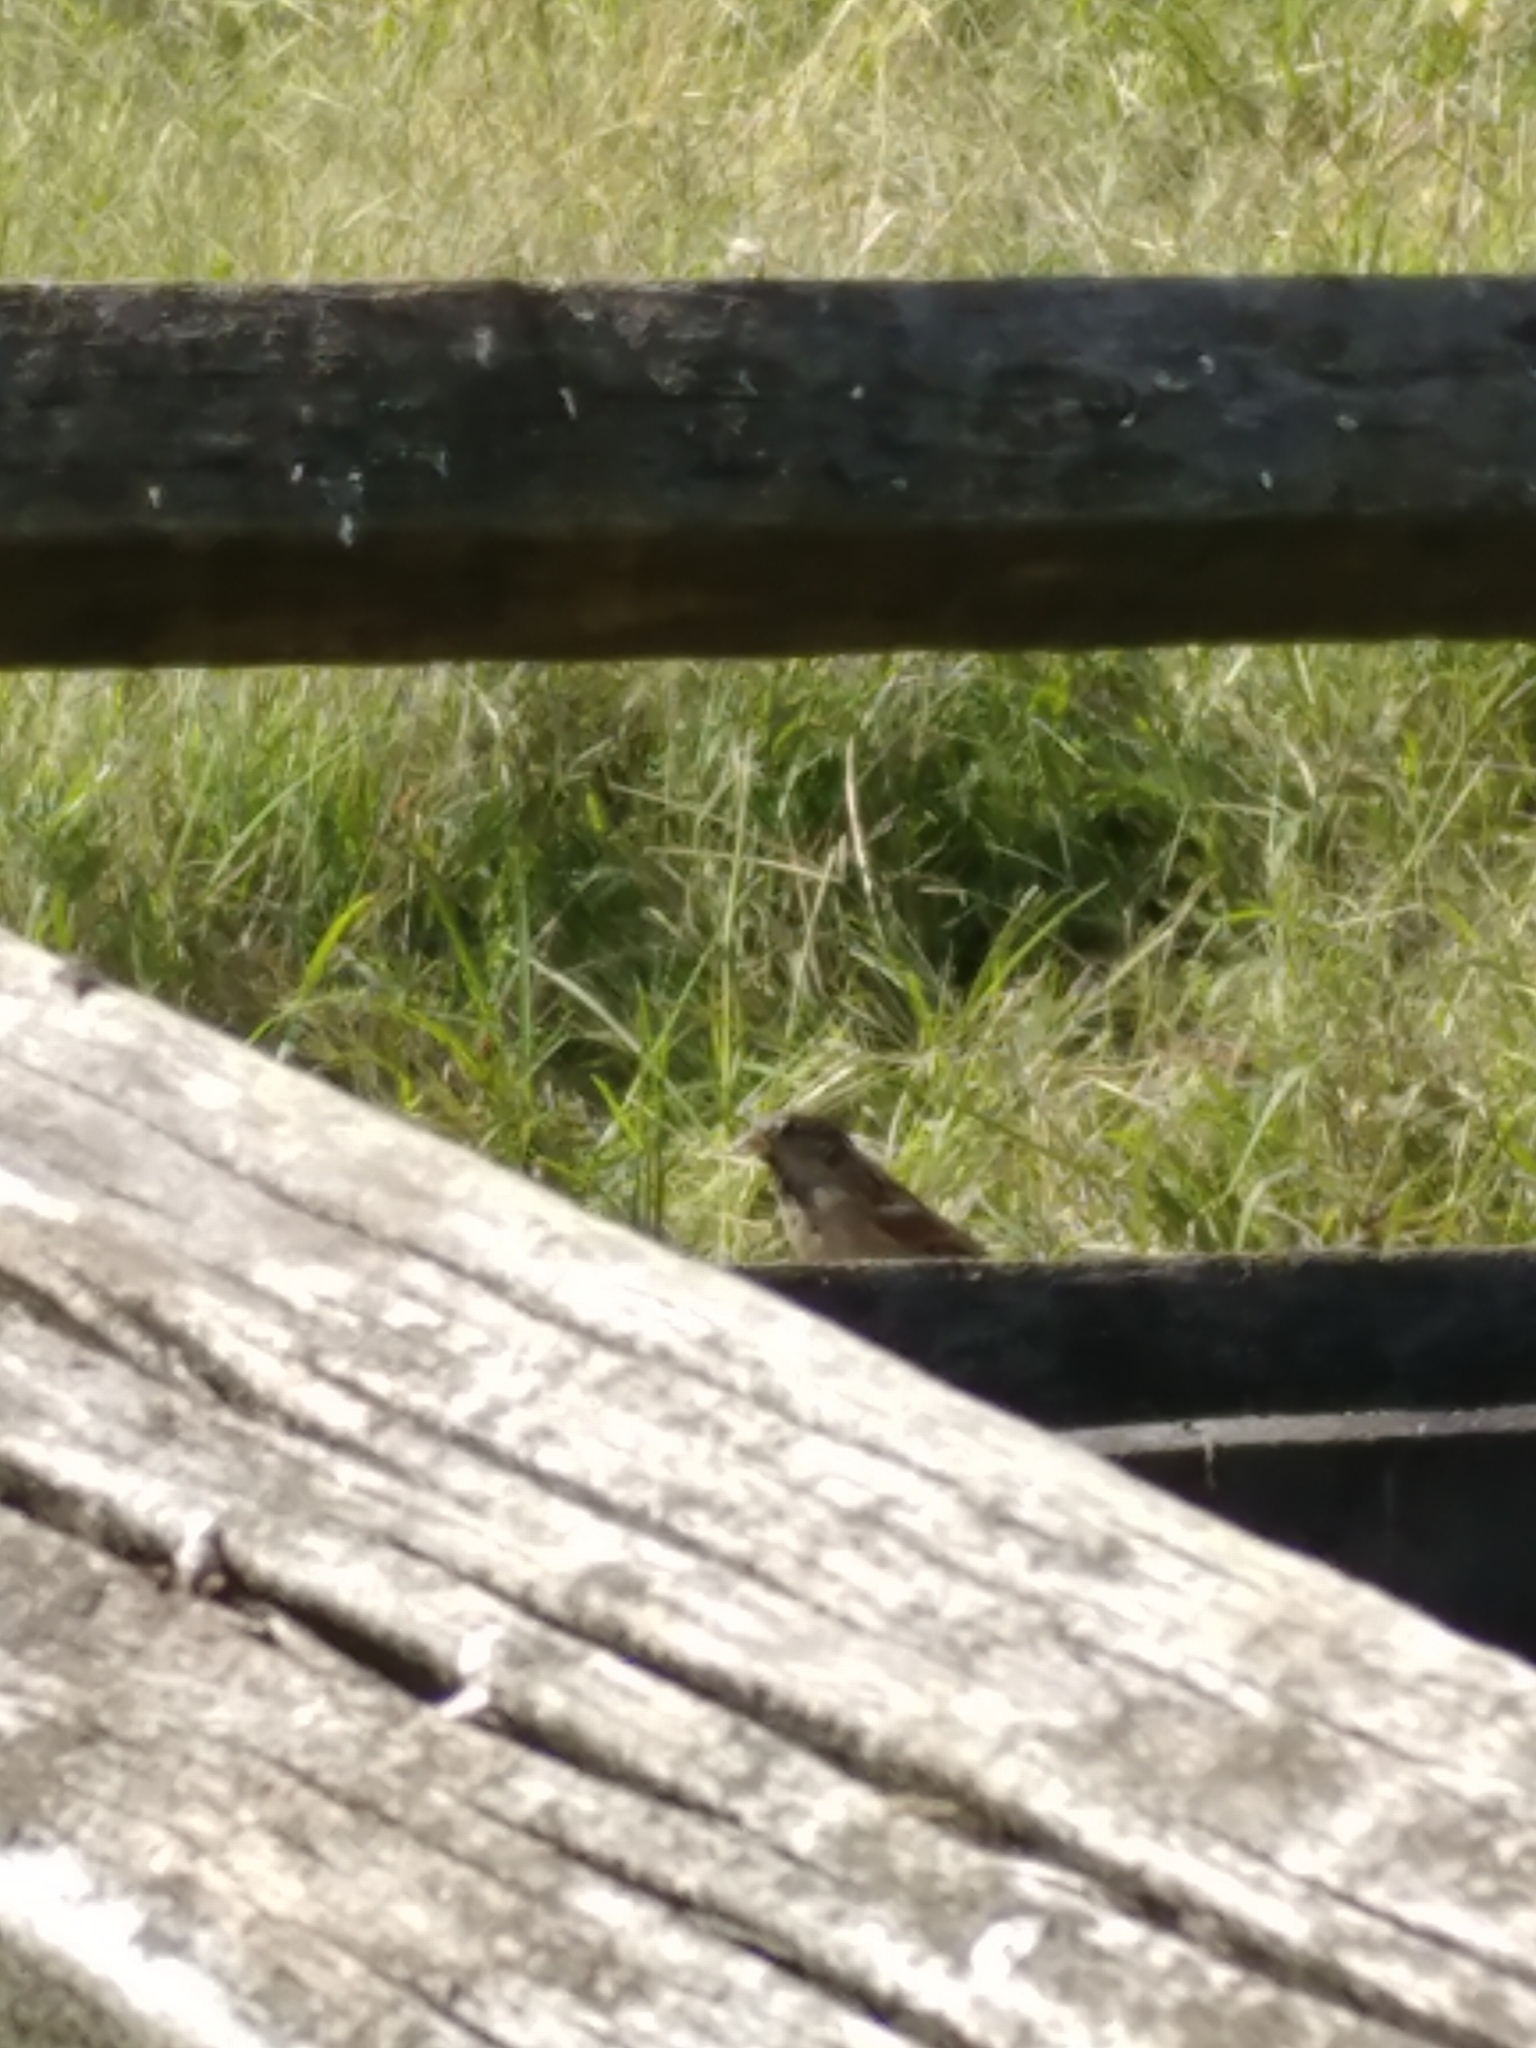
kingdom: Animalia
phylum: Chordata
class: Aves
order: Passeriformes
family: Passeridae
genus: Passer
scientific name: Passer domesticus
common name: House sparrow
